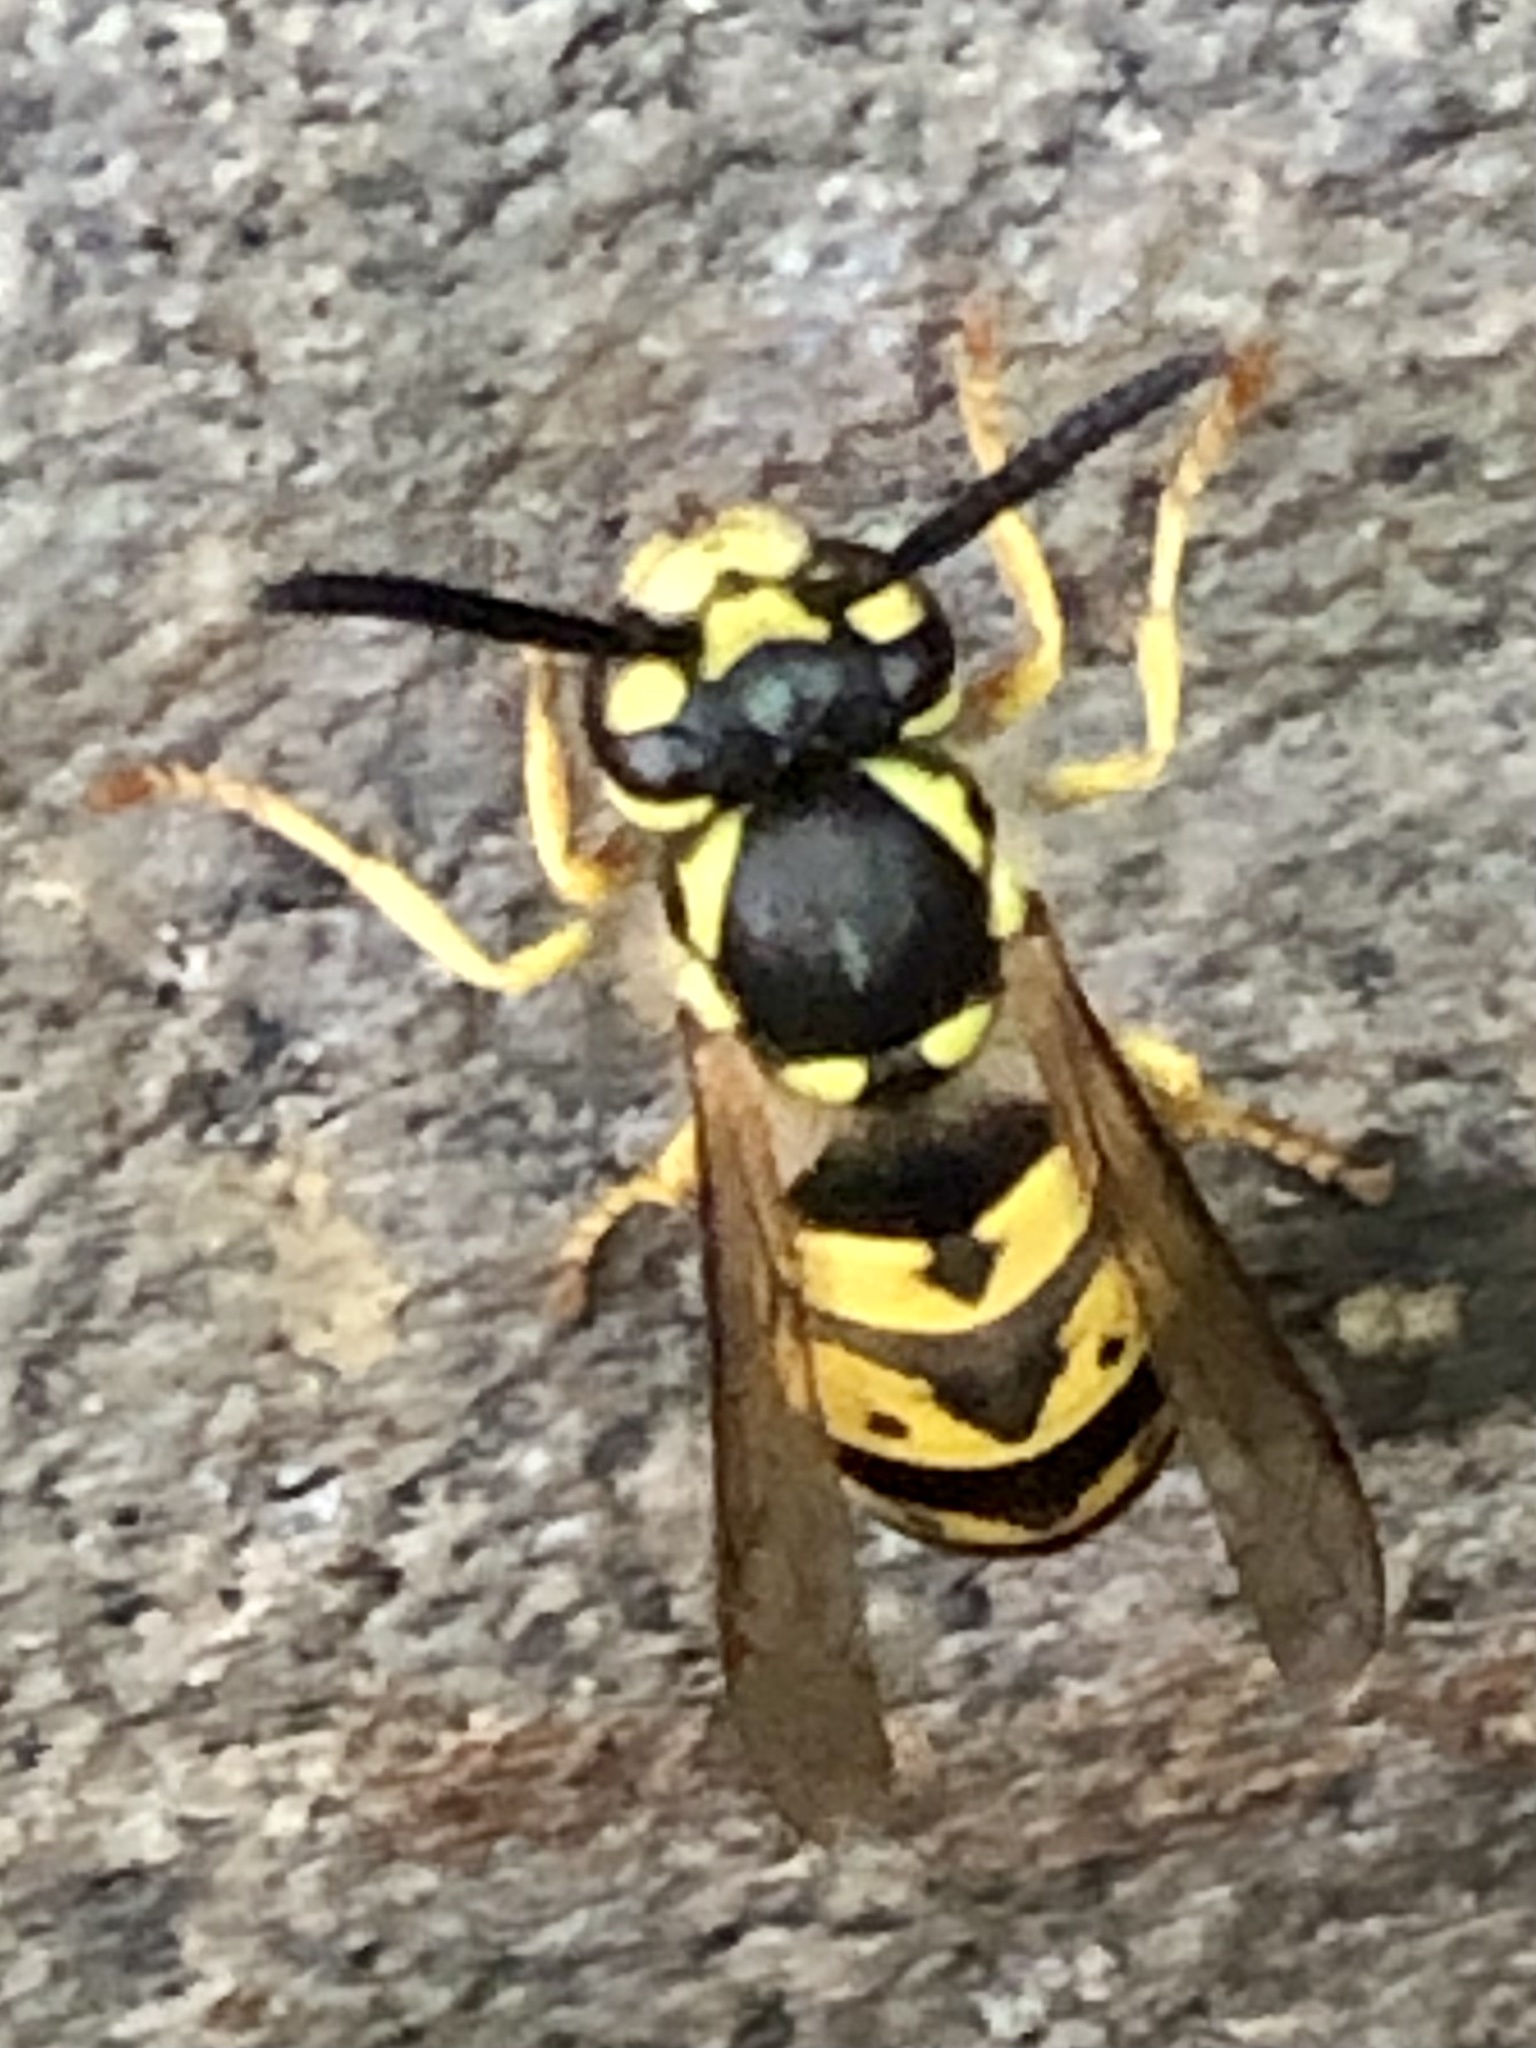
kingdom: Animalia
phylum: Arthropoda
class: Insecta
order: Hymenoptera
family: Vespidae
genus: Vespula
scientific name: Vespula germanica
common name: German wasp
